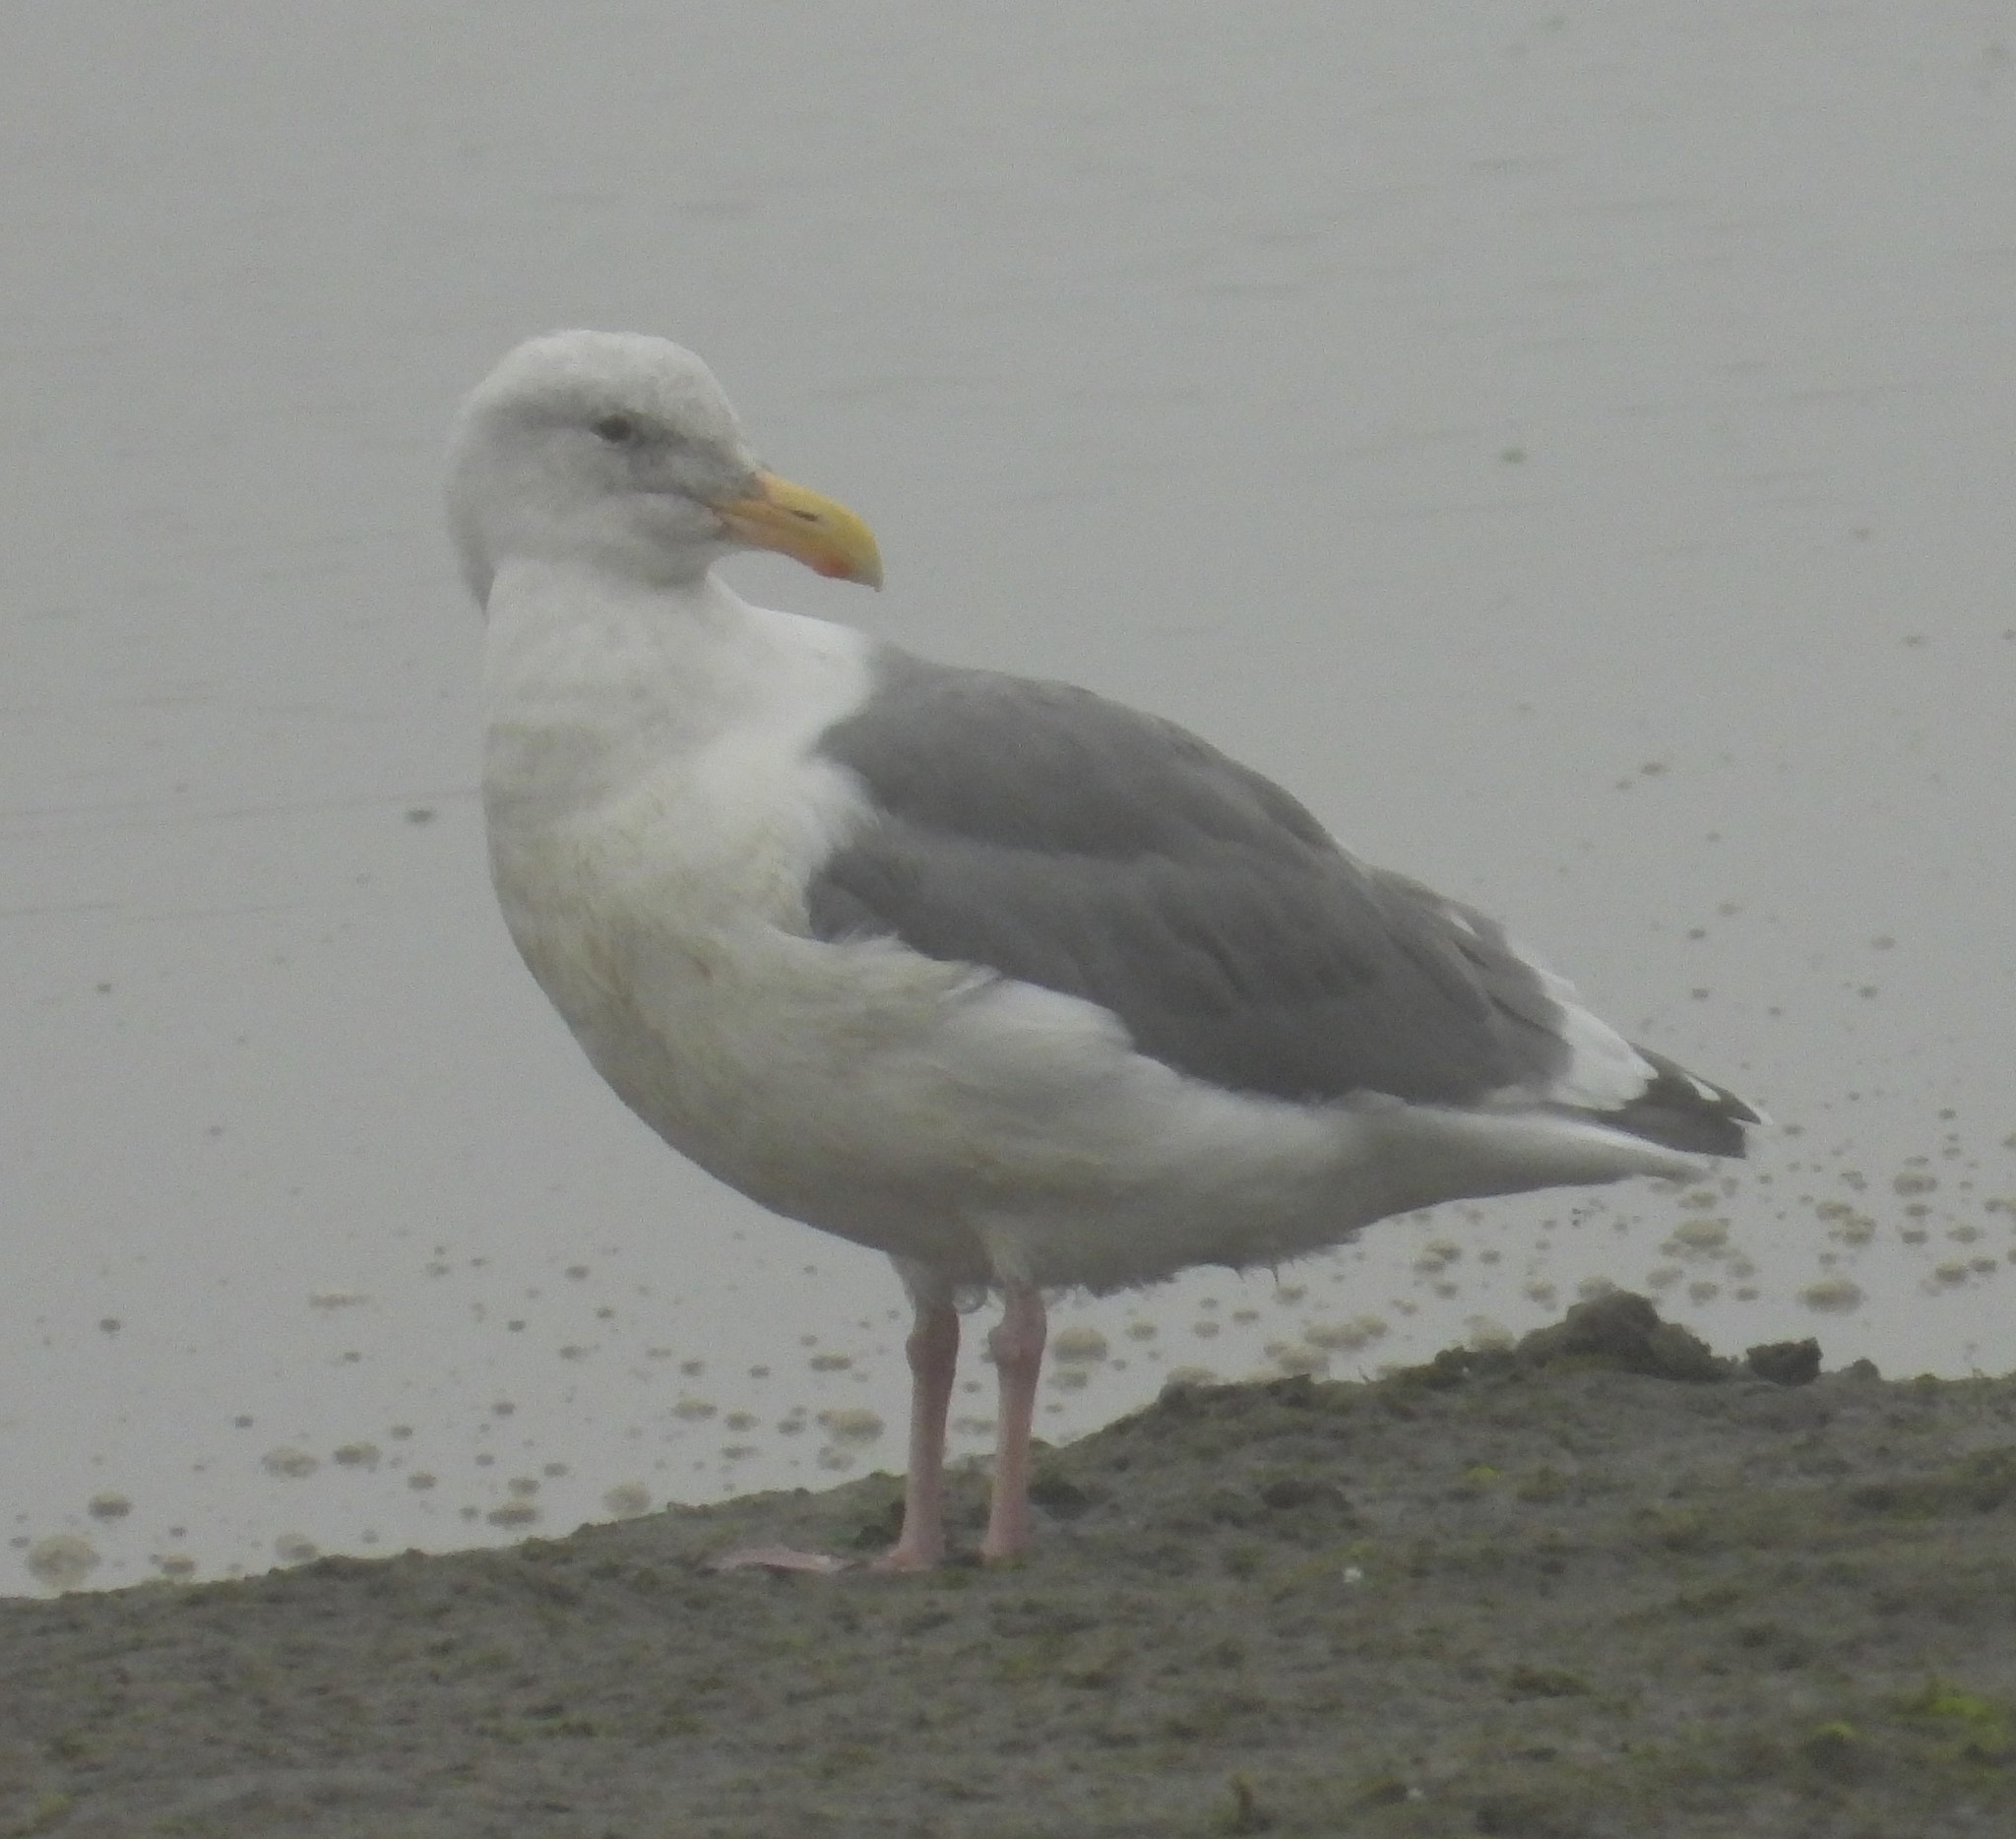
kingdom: Animalia
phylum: Chordata
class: Aves
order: Charadriiformes
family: Laridae
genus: Larus
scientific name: Larus occidentalis
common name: Western gull
